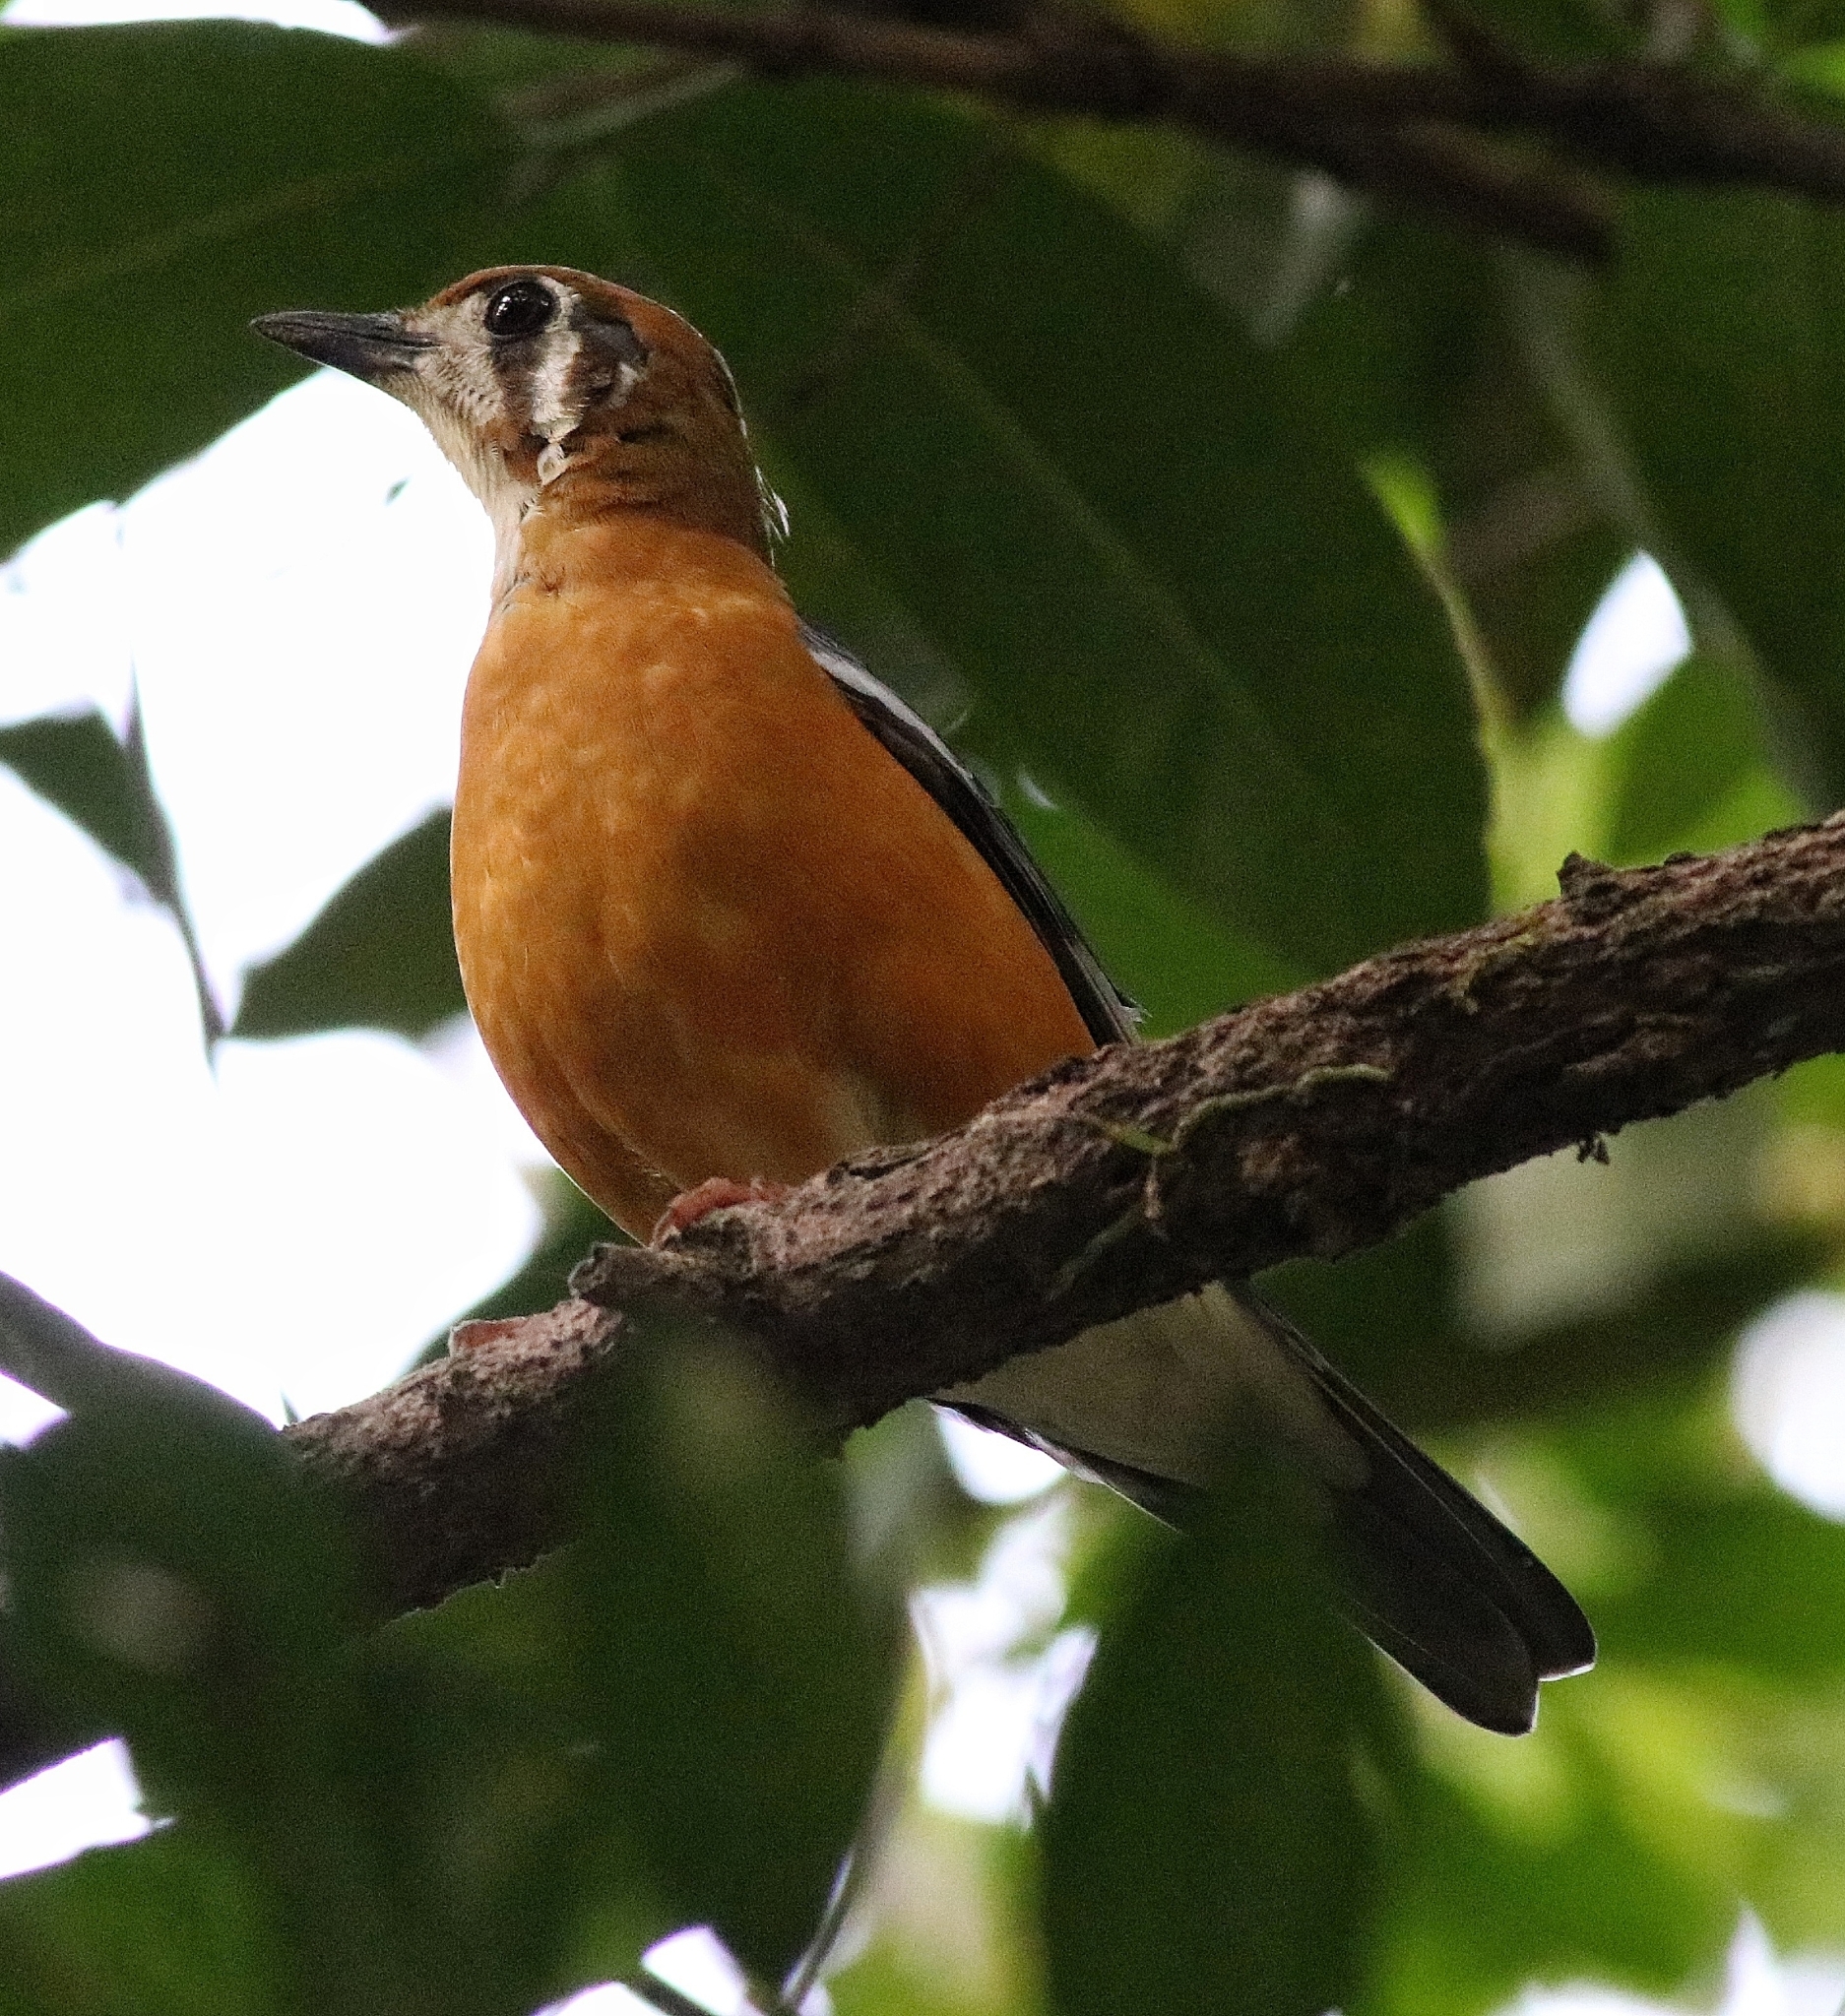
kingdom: Animalia
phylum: Chordata
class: Aves
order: Passeriformes
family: Turdidae
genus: Geokichla
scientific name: Geokichla citrina
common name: Orange-headed thrush
